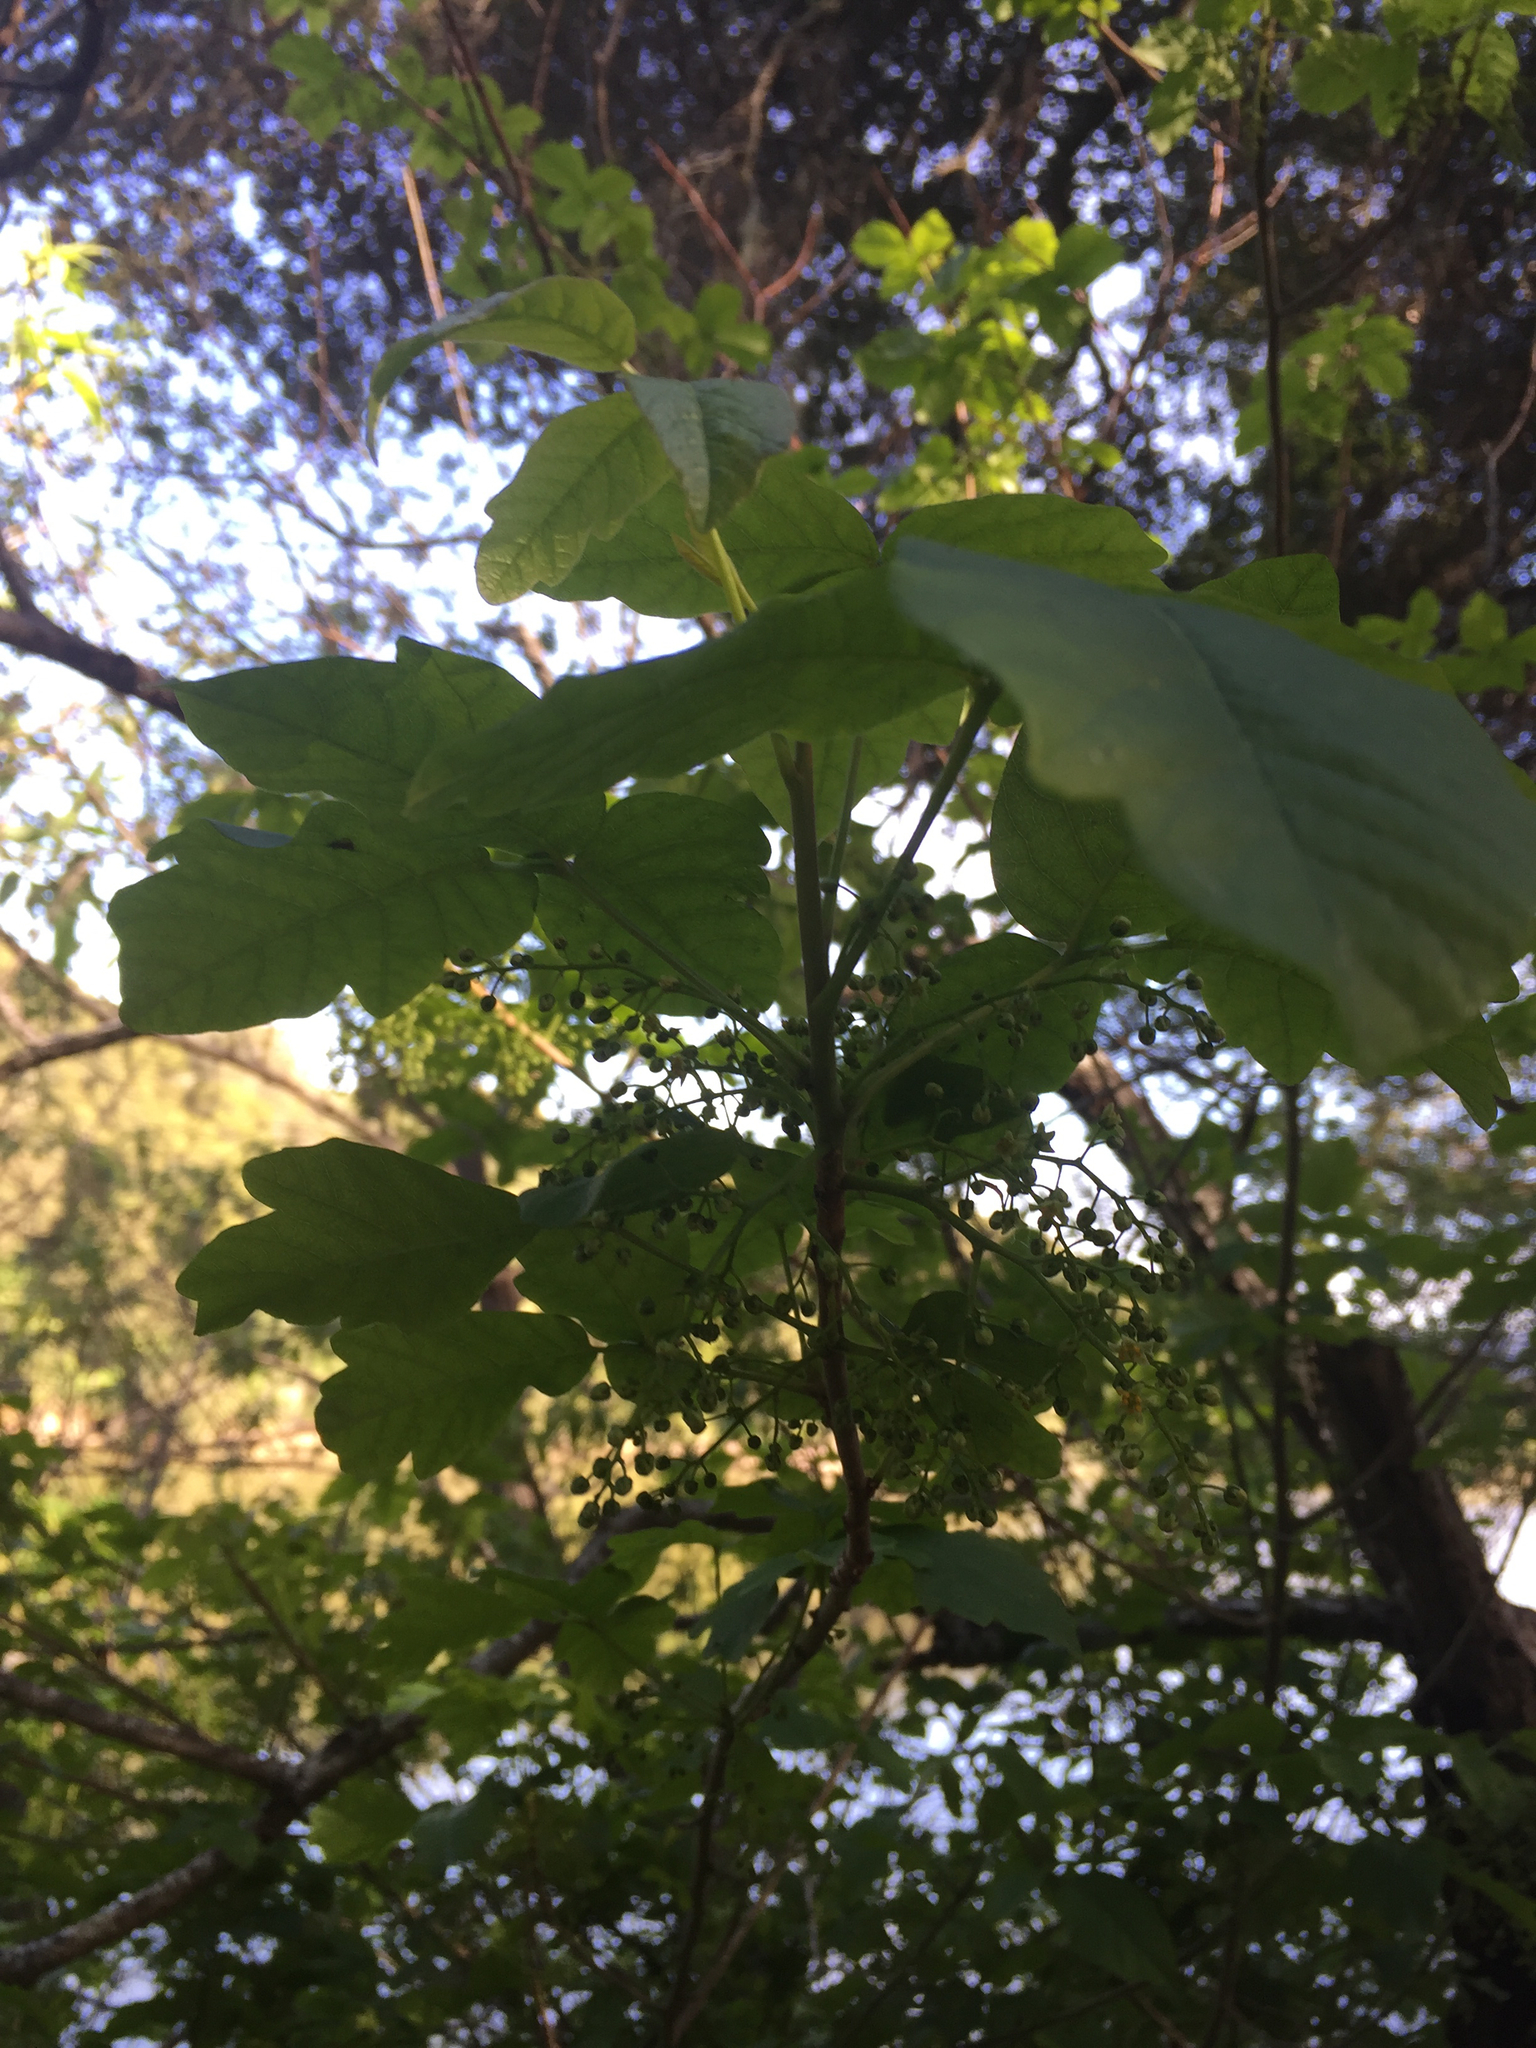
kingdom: Plantae
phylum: Tracheophyta
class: Magnoliopsida
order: Sapindales
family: Anacardiaceae
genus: Toxicodendron
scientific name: Toxicodendron diversilobum
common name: Pacific poison-oak
